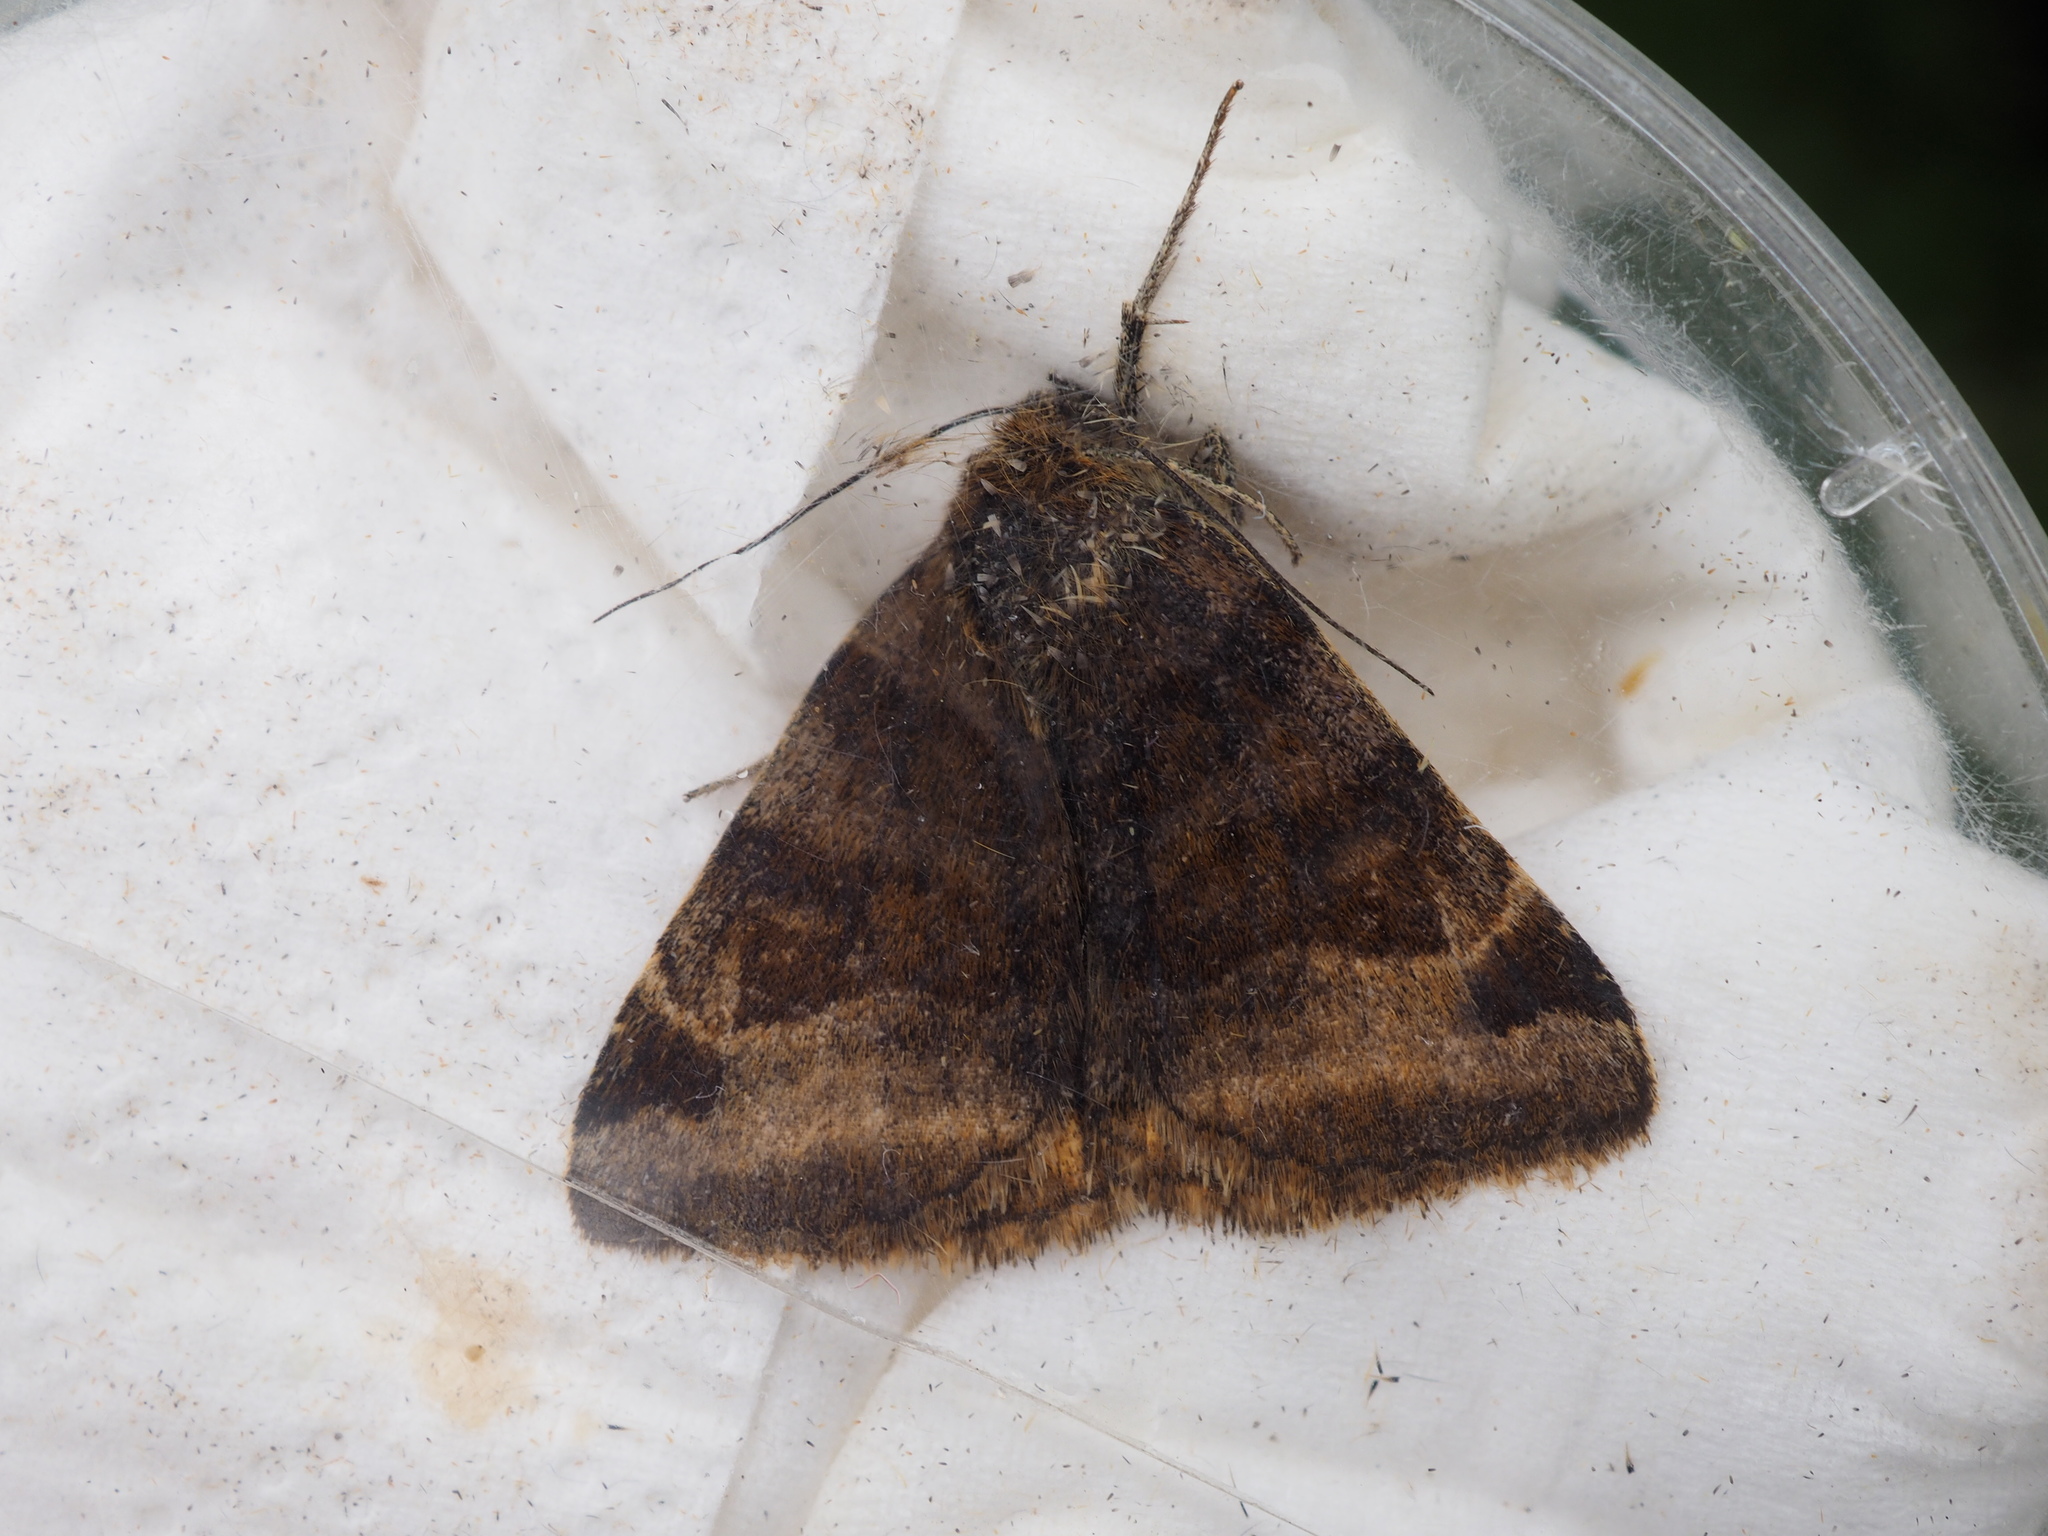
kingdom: Animalia
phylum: Arthropoda
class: Insecta
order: Lepidoptera
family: Erebidae
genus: Euclidia
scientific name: Euclidia glyphica
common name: Burnet companion
